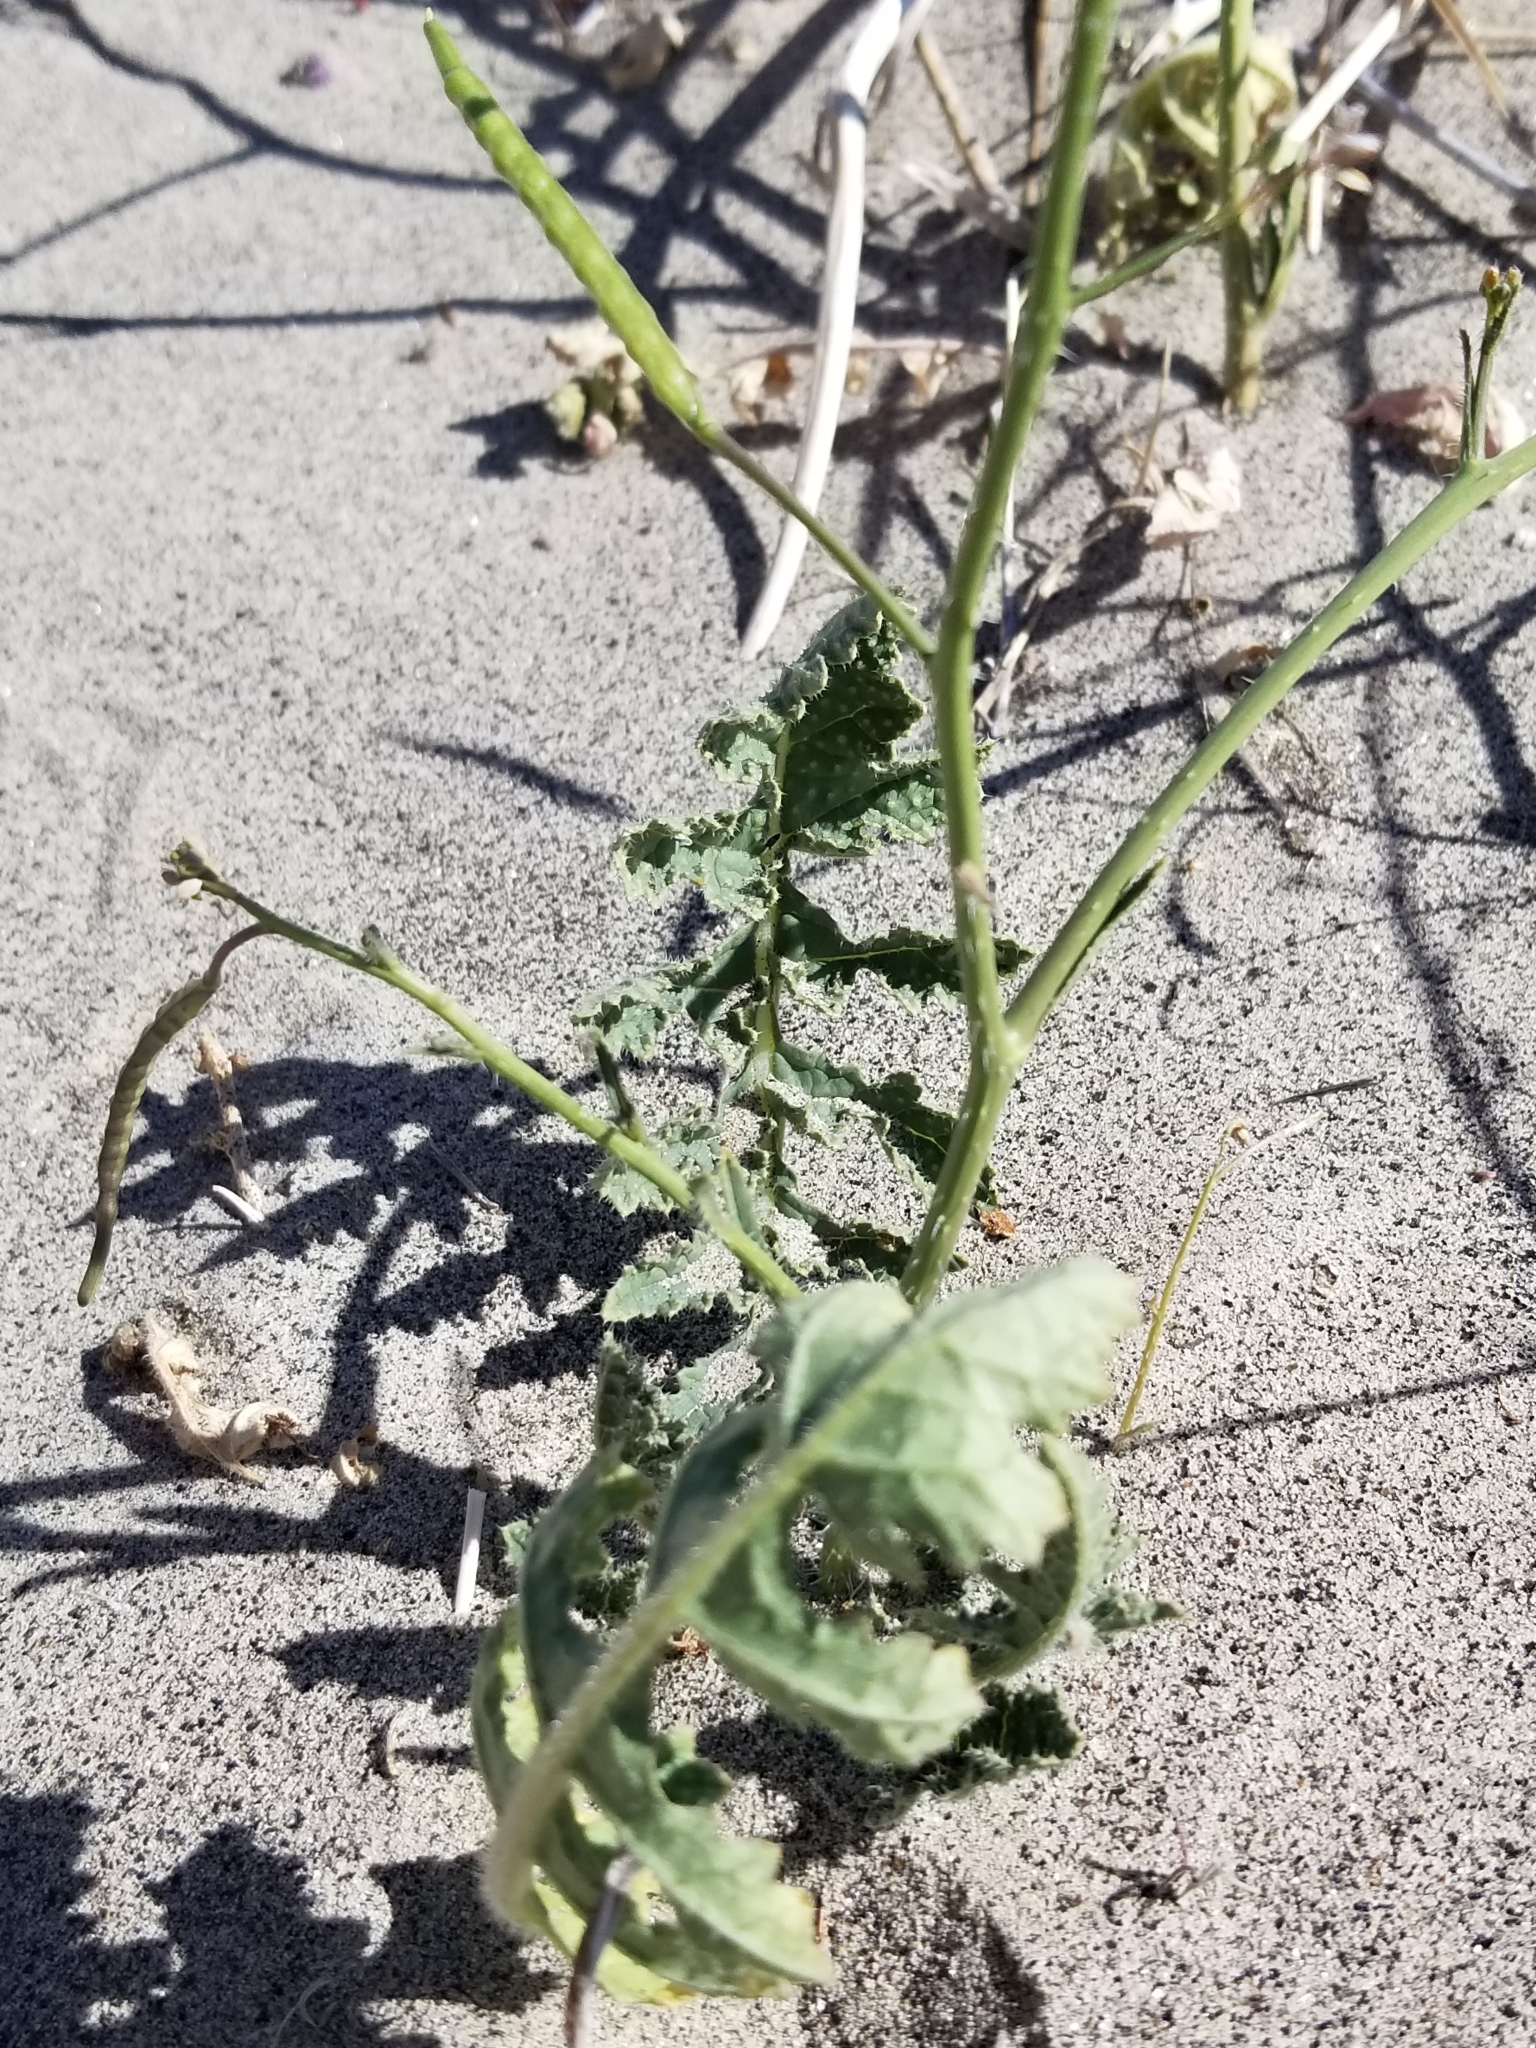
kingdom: Plantae
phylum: Tracheophyta
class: Magnoliopsida
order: Brassicales
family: Brassicaceae
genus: Brassica
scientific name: Brassica tournefortii
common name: Pale cabbage
